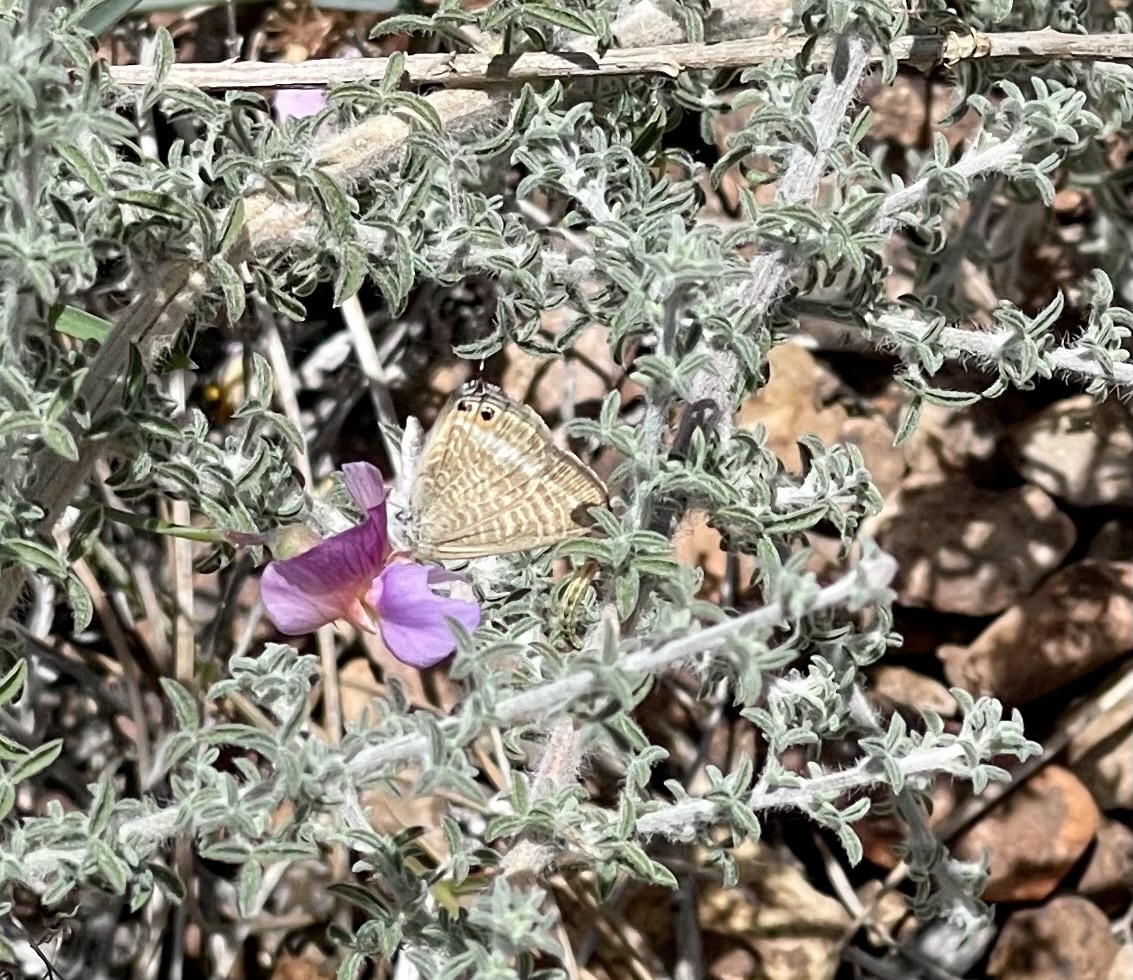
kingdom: Animalia
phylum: Arthropoda
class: Insecta
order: Lepidoptera
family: Lycaenidae
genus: Lampides
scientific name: Lampides boeticus
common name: Long-tailed blue
